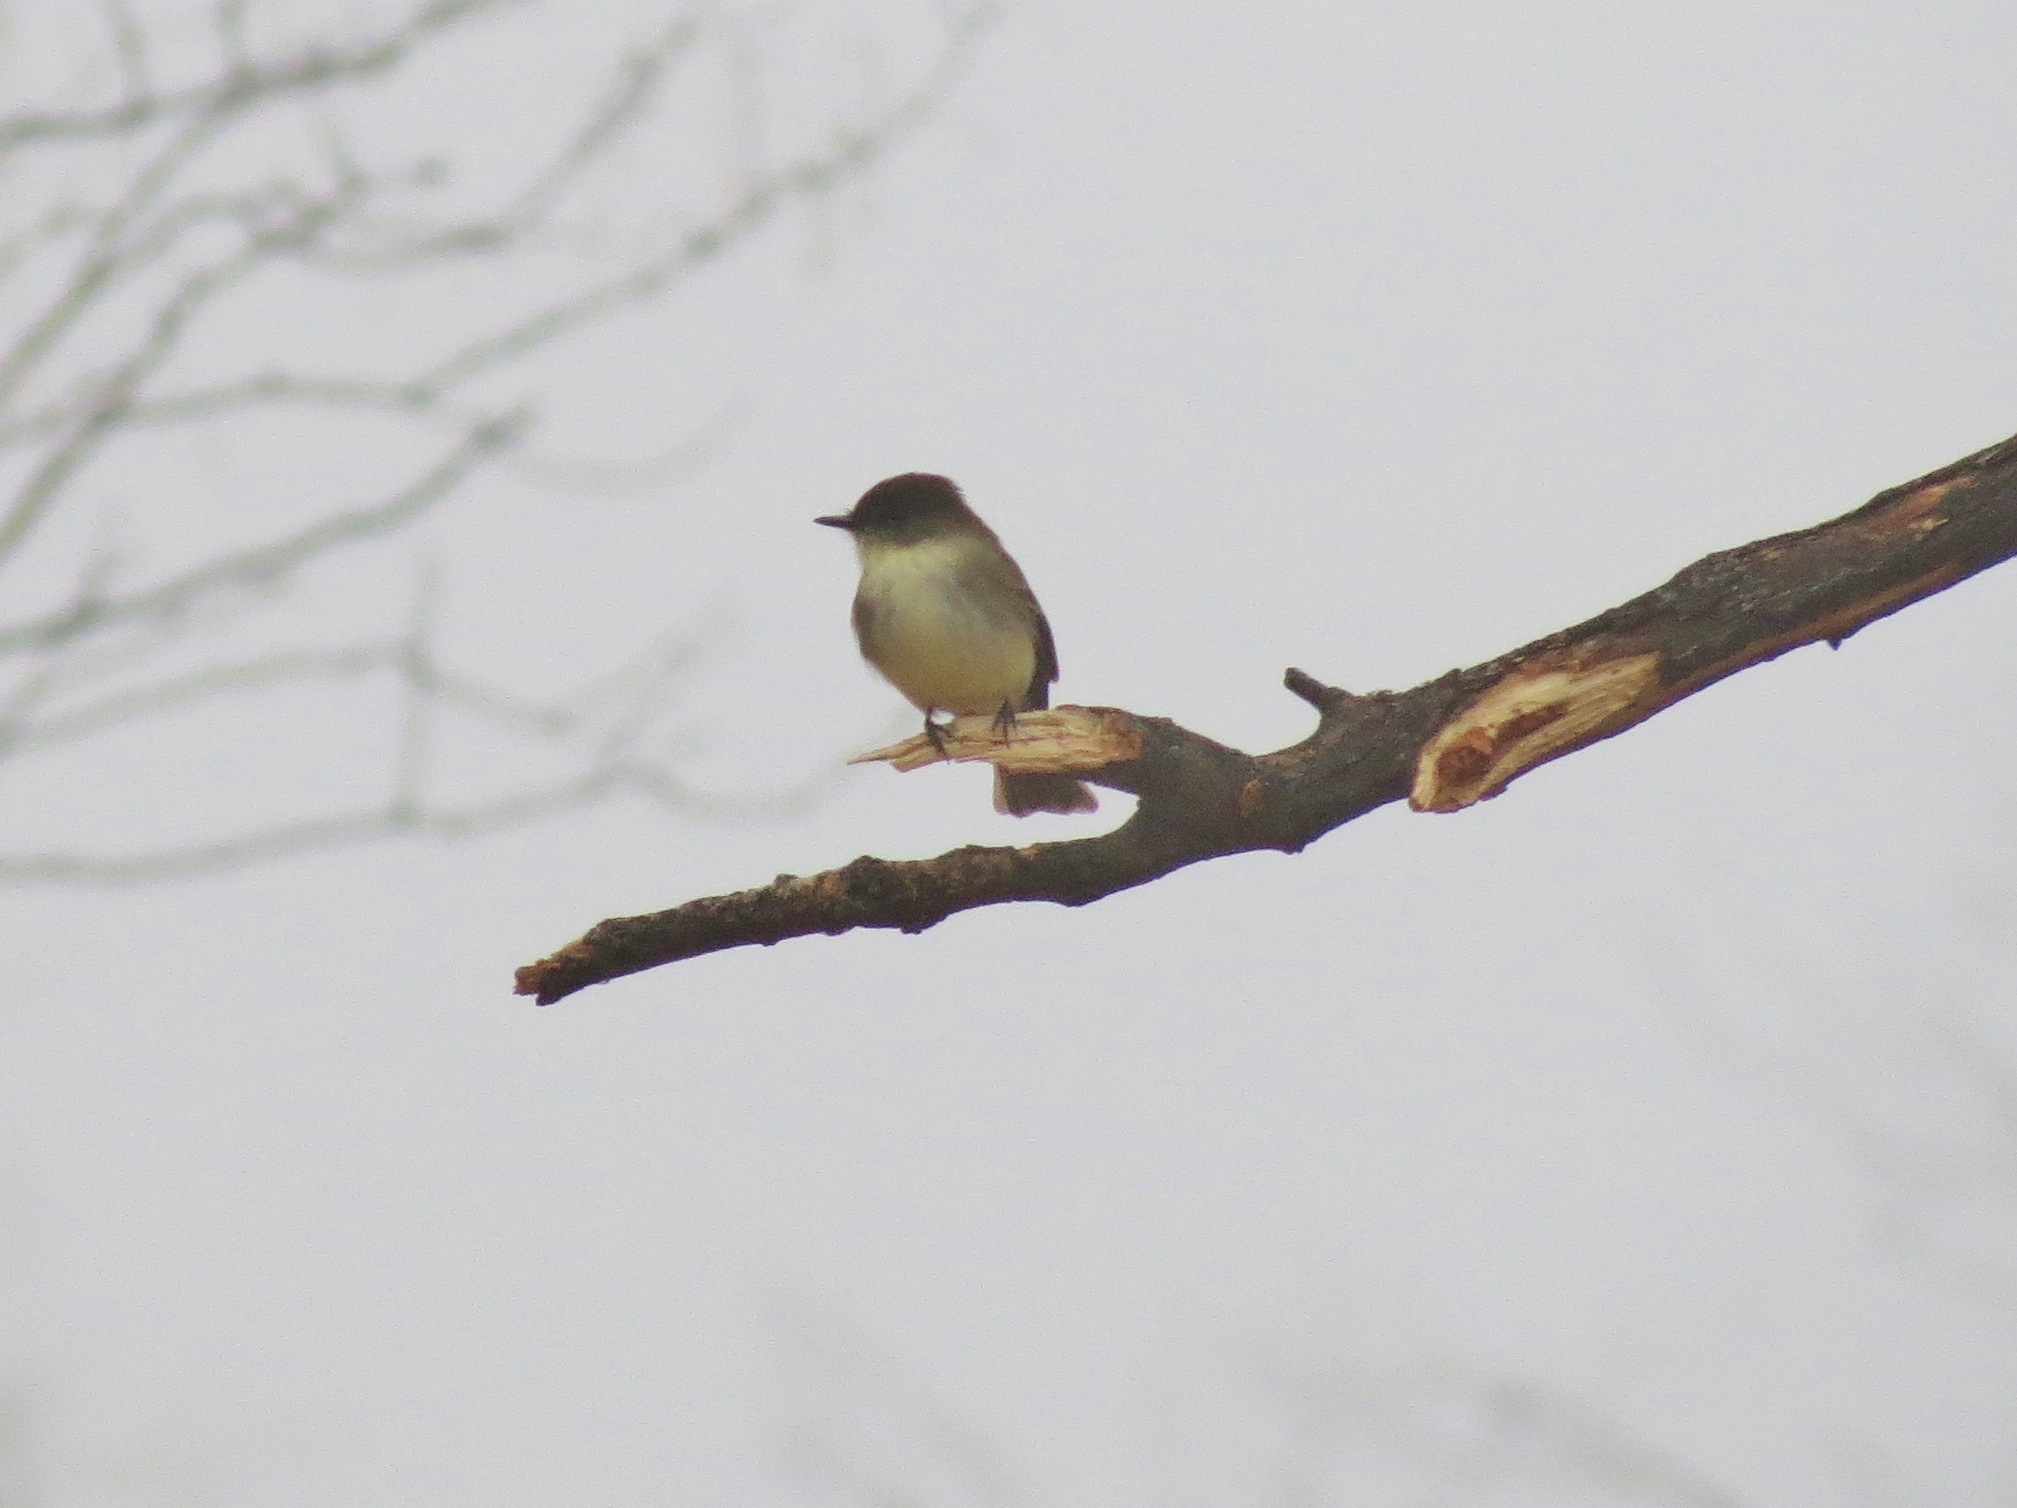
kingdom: Animalia
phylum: Chordata
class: Aves
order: Passeriformes
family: Tyrannidae
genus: Sayornis
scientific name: Sayornis phoebe
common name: Eastern phoebe
